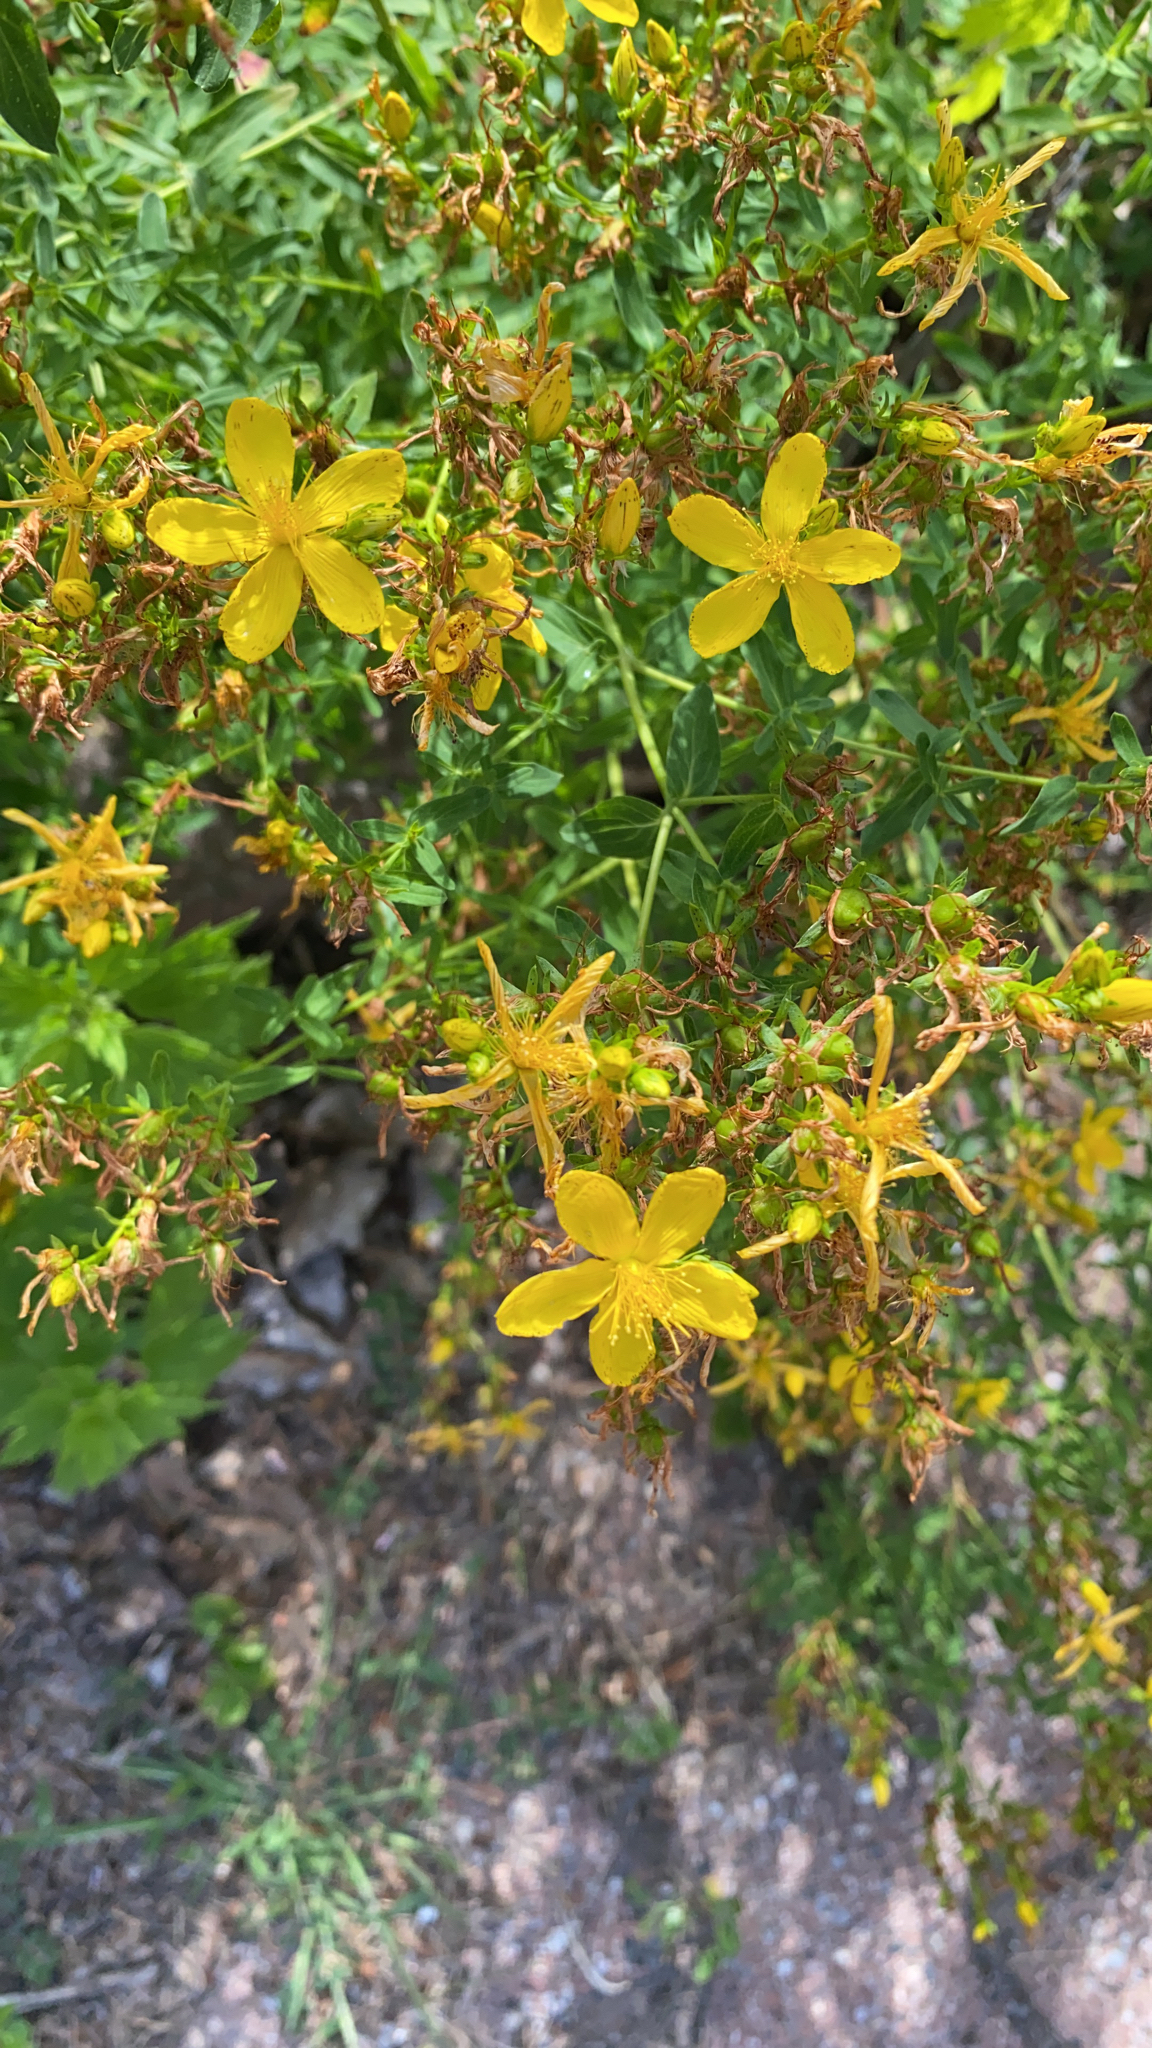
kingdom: Plantae
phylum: Tracheophyta
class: Magnoliopsida
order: Malpighiales
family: Hypericaceae
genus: Hypericum
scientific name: Hypericum perforatum
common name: Common st. johnswort
